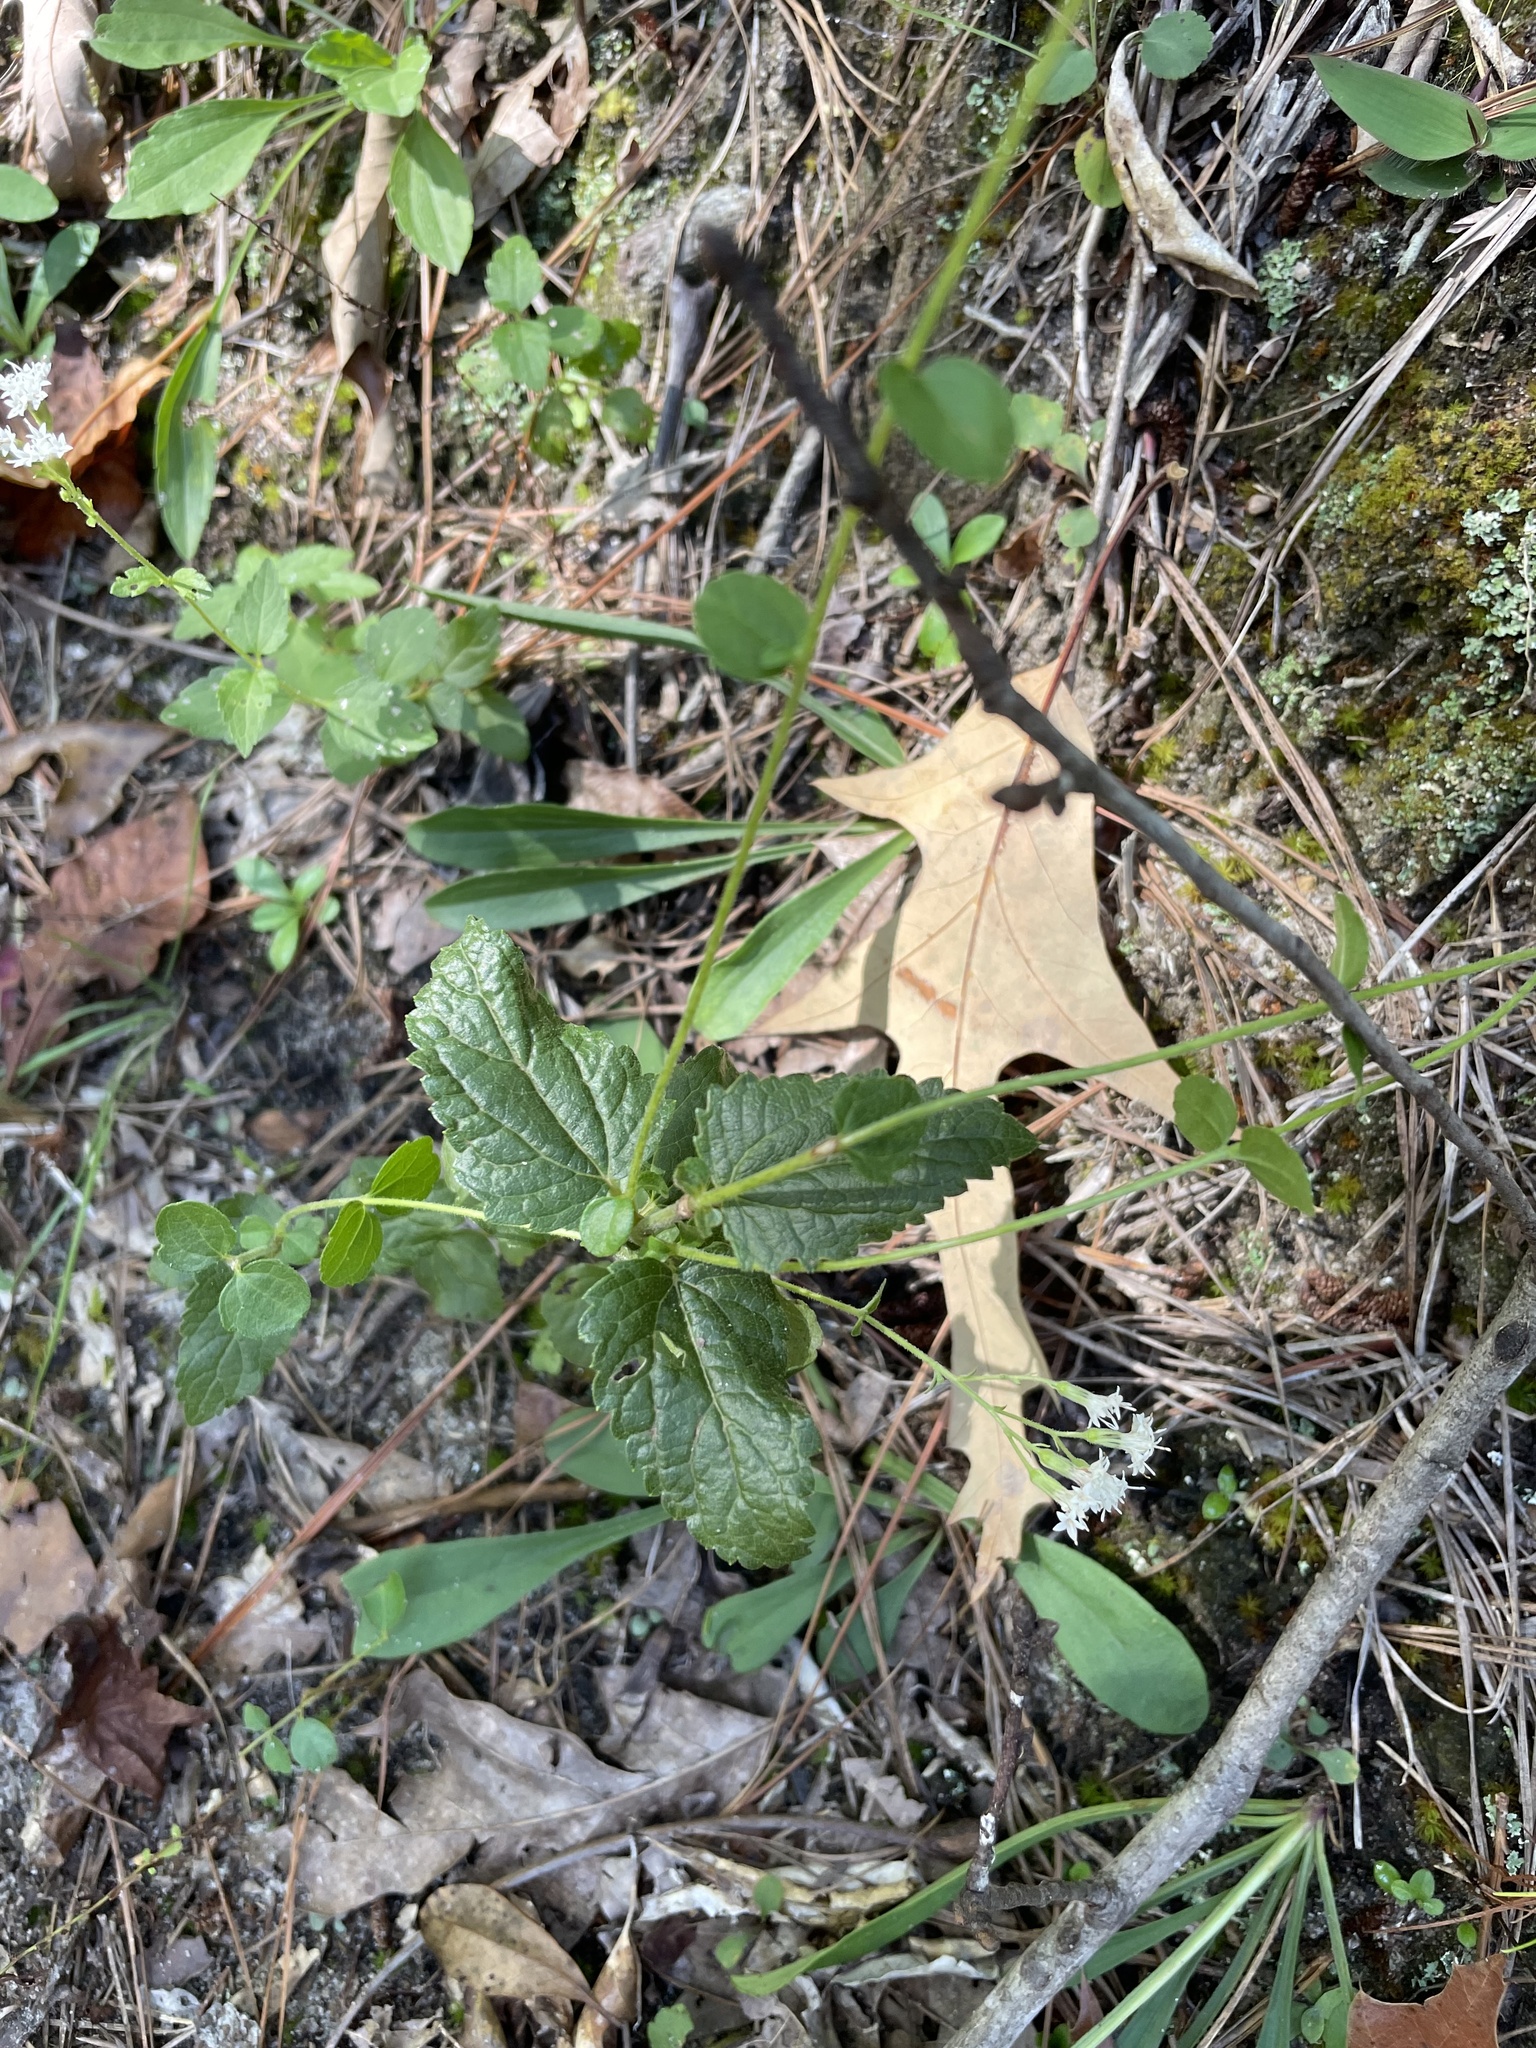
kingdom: Plantae
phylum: Tracheophyta
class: Magnoliopsida
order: Asterales
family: Asteraceae
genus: Ageratina
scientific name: Ageratina aromatica
